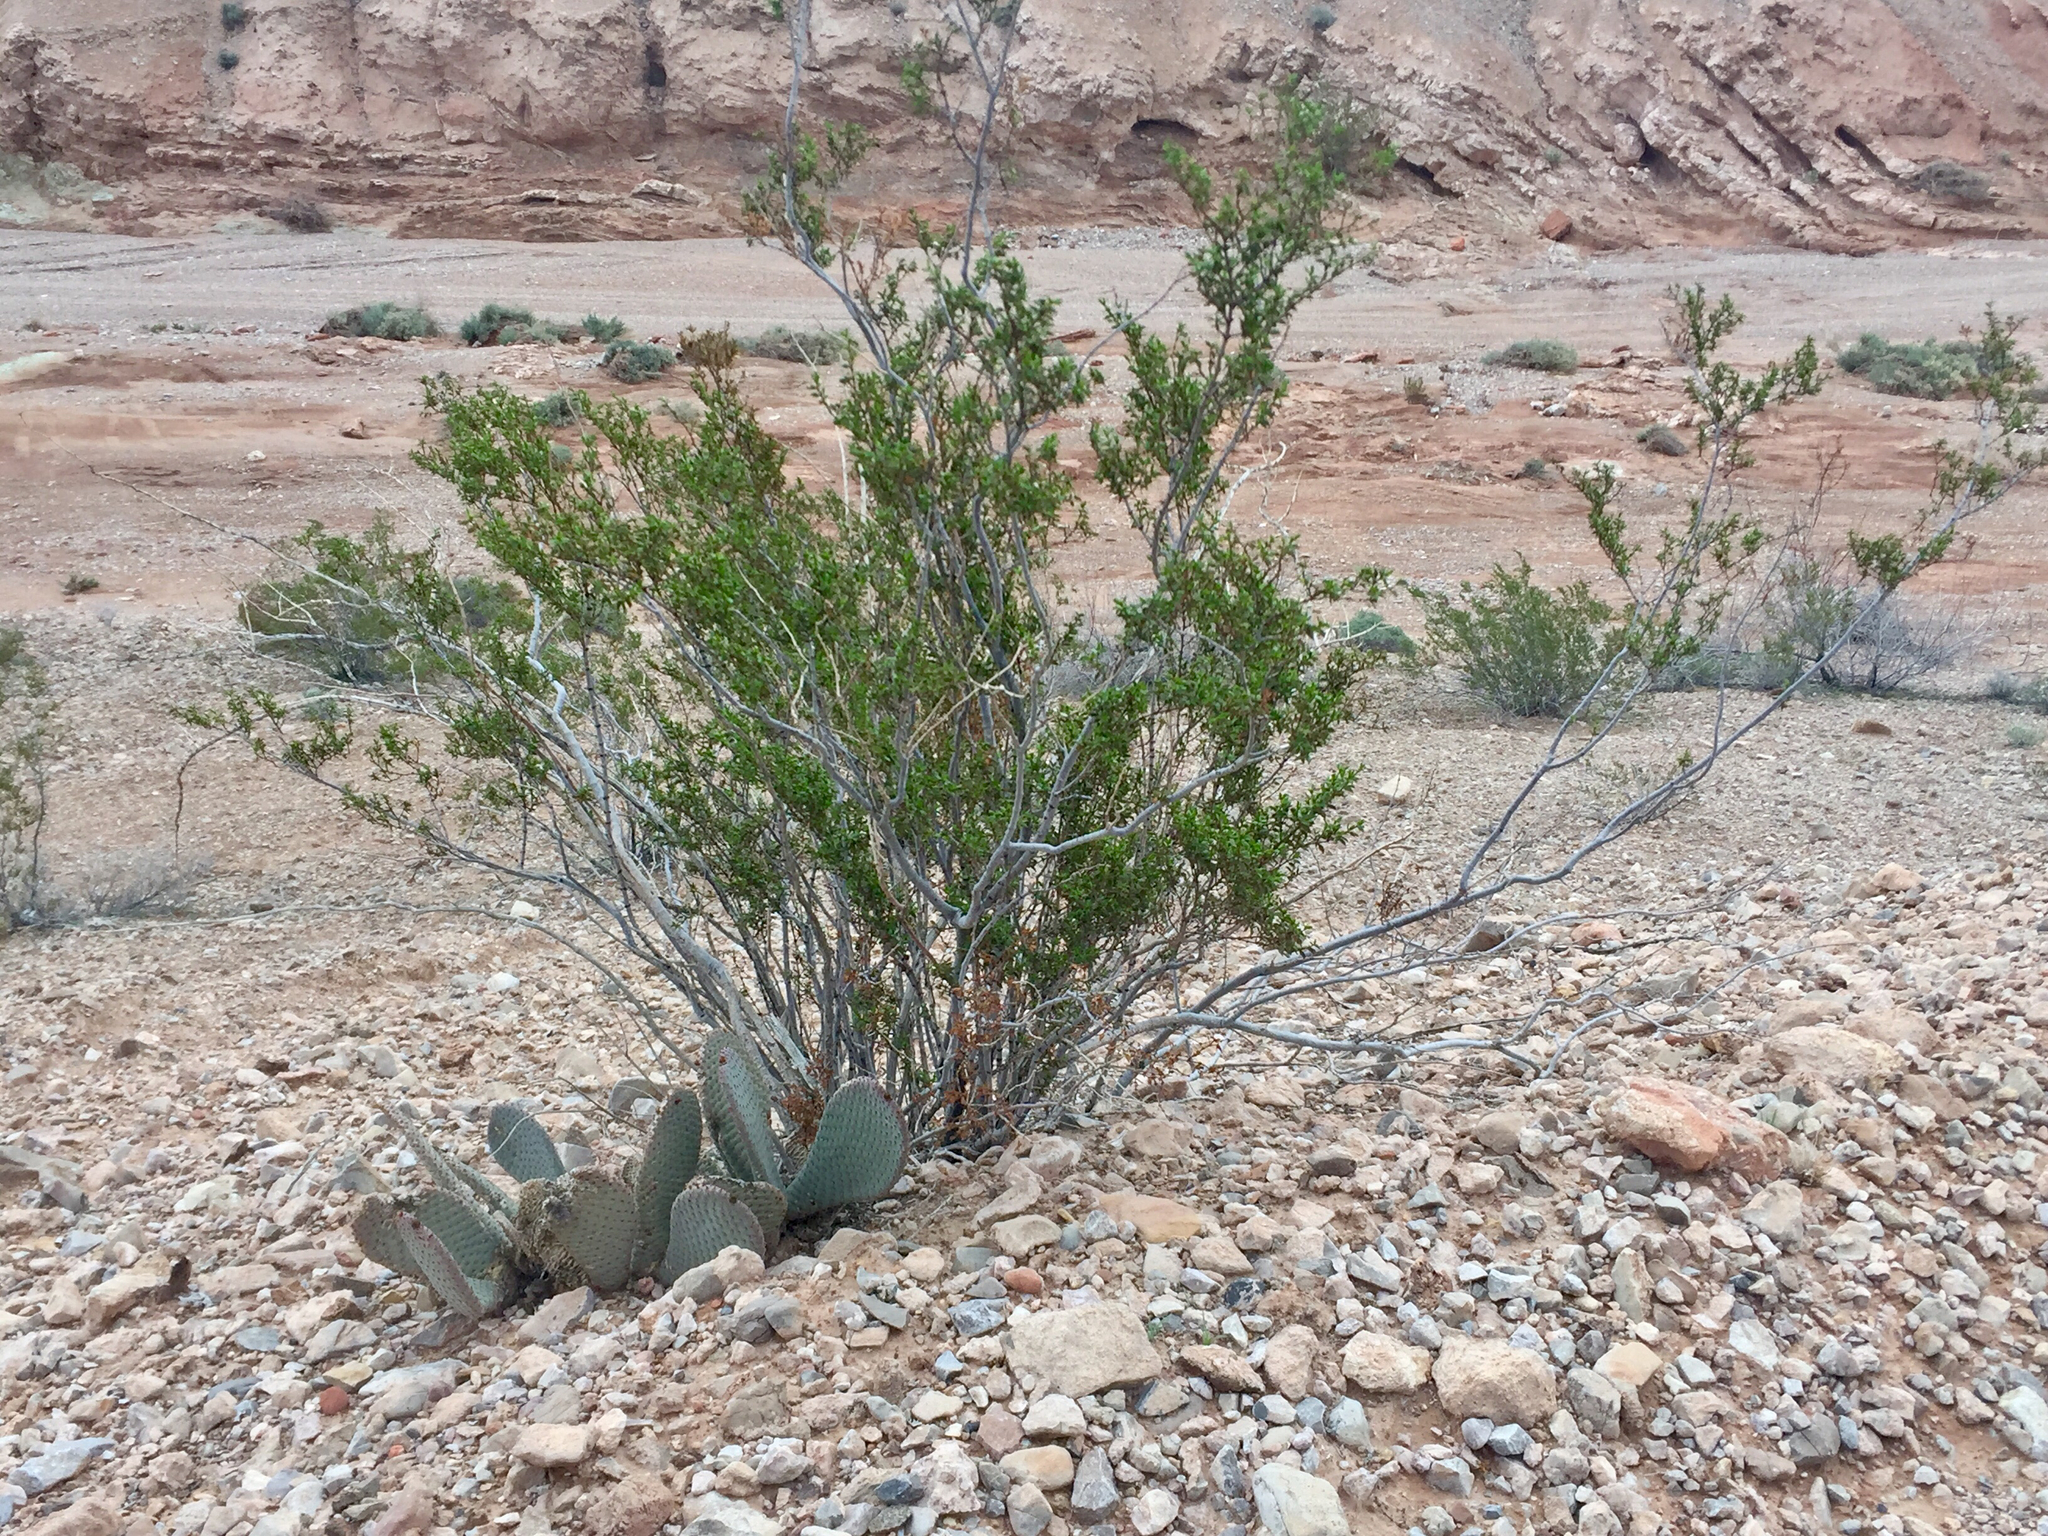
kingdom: Plantae
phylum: Tracheophyta
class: Magnoliopsida
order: Zygophyllales
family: Zygophyllaceae
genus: Larrea
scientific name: Larrea tridentata
